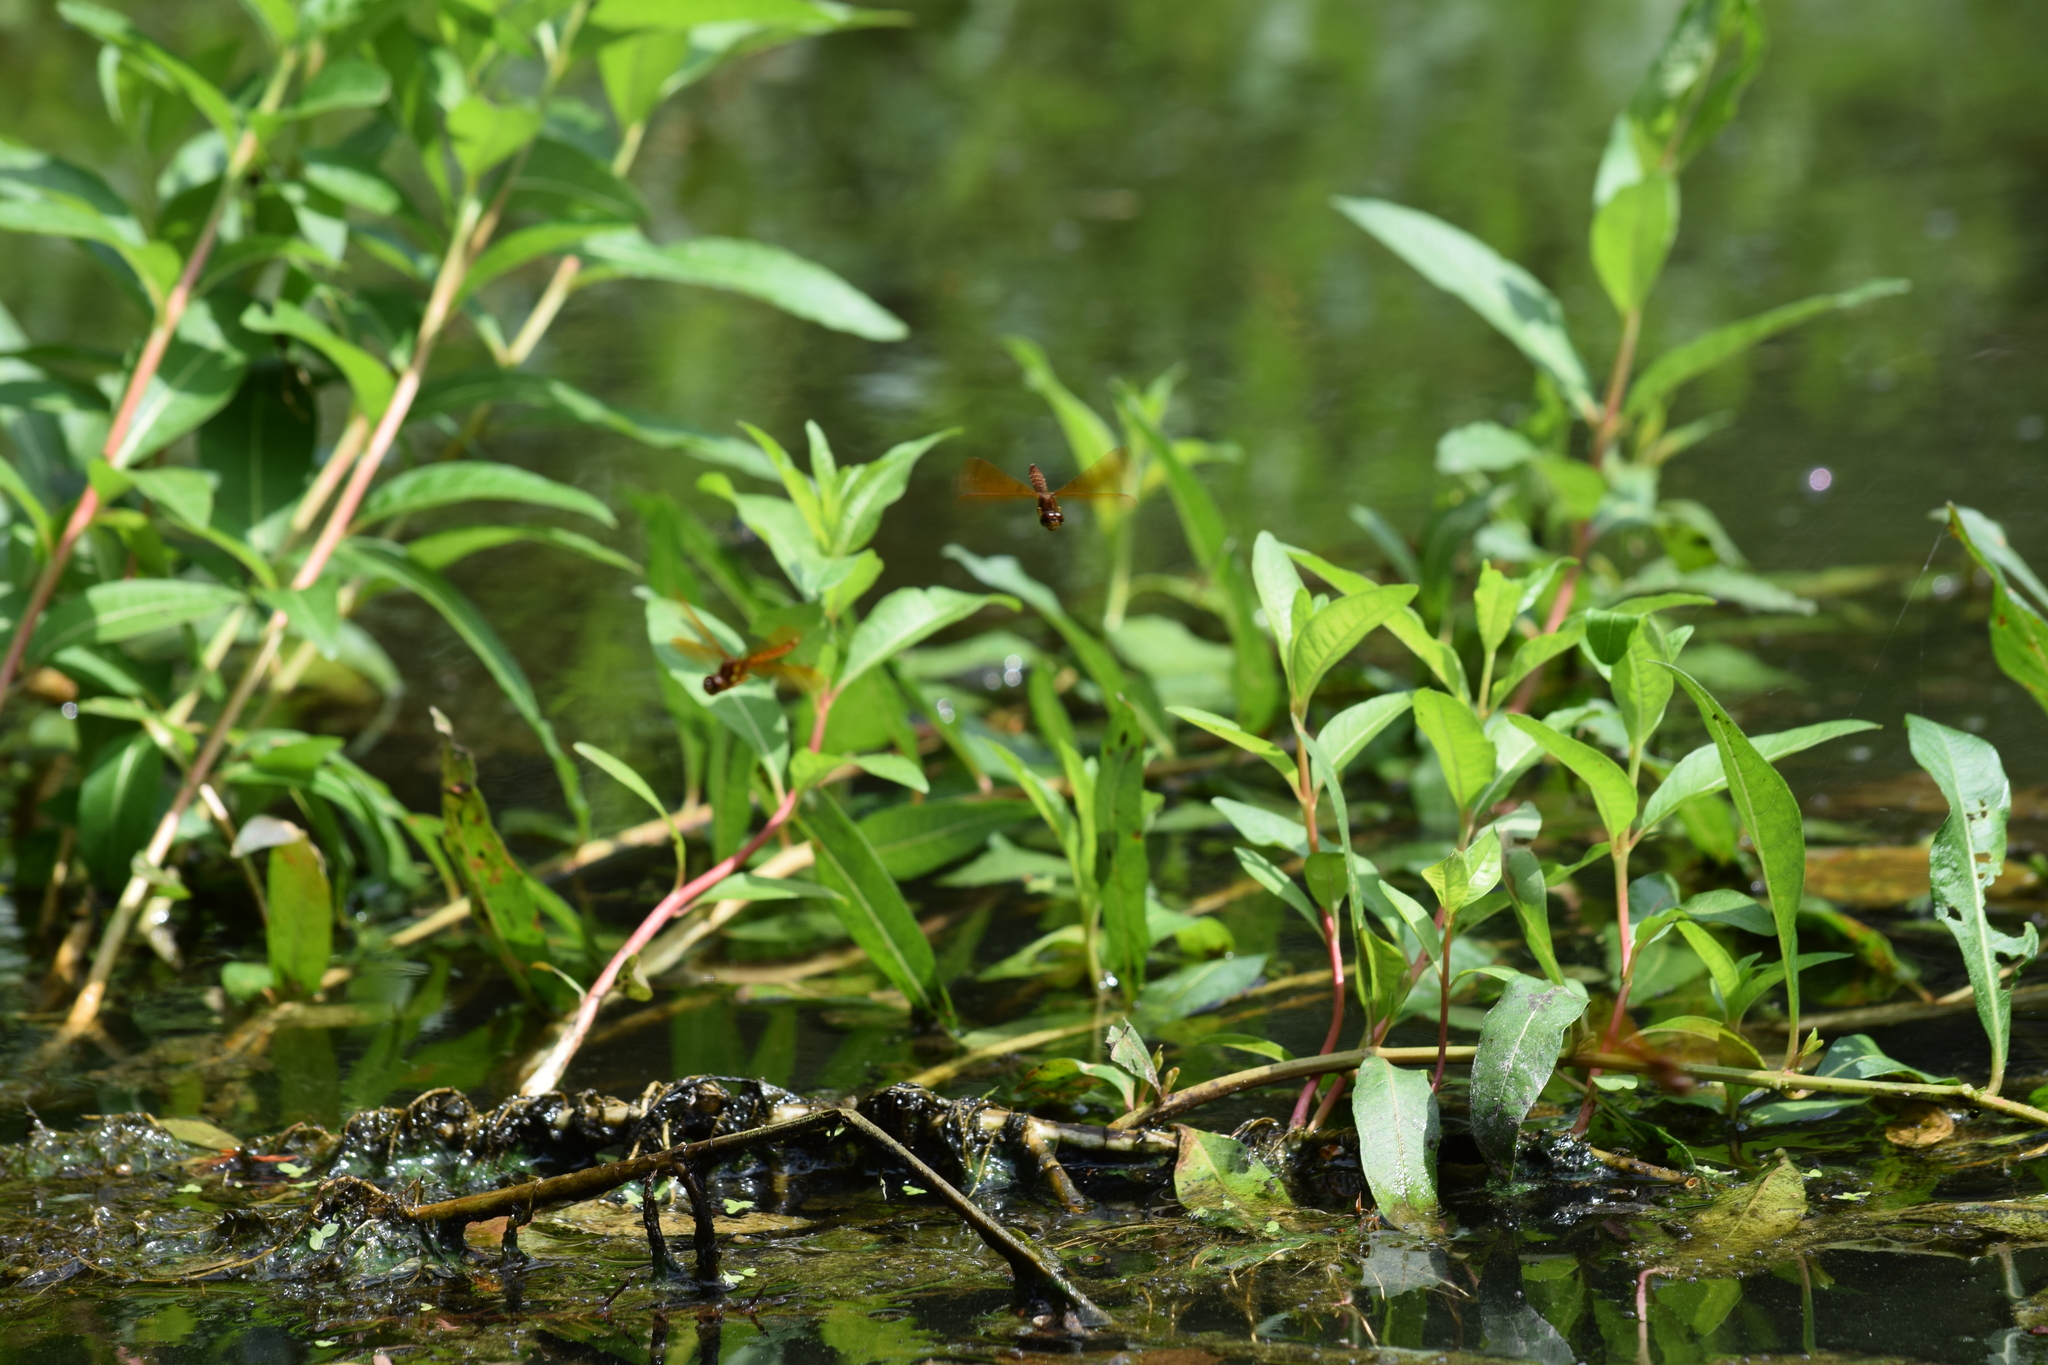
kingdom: Animalia
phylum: Arthropoda
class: Insecta
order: Odonata
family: Libellulidae
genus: Perithemis
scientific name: Perithemis tenera
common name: Eastern amberwing
